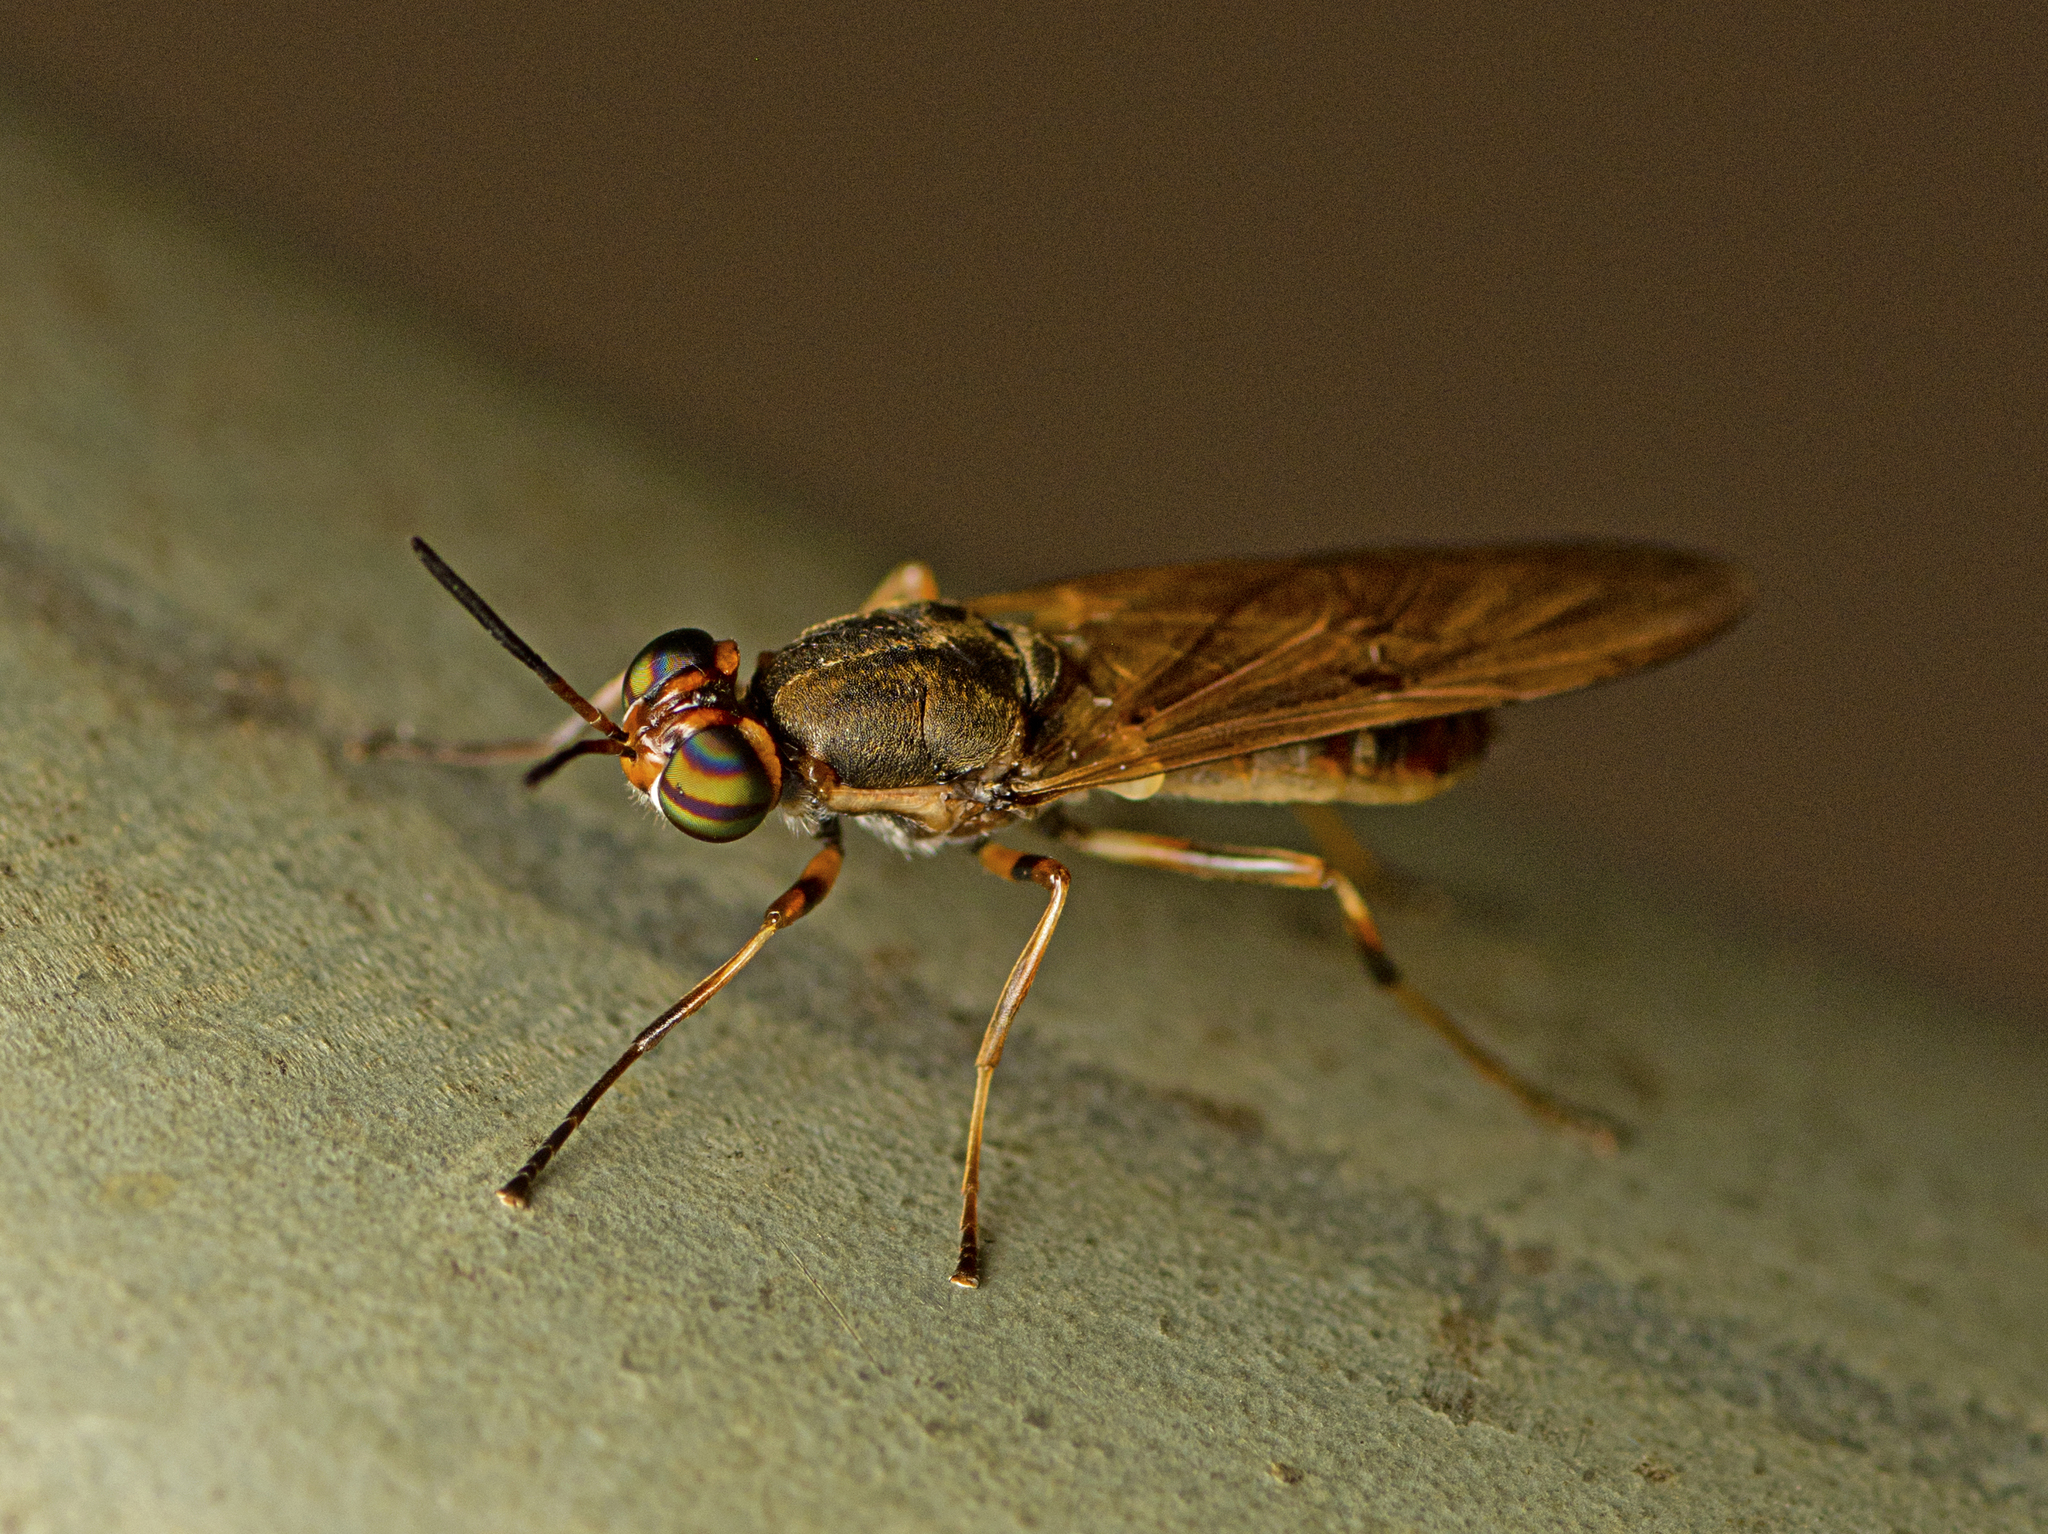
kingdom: Animalia
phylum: Arthropoda
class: Insecta
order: Diptera
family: Stratiomyidae
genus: Lagenosoma
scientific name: Lagenosoma dispar
